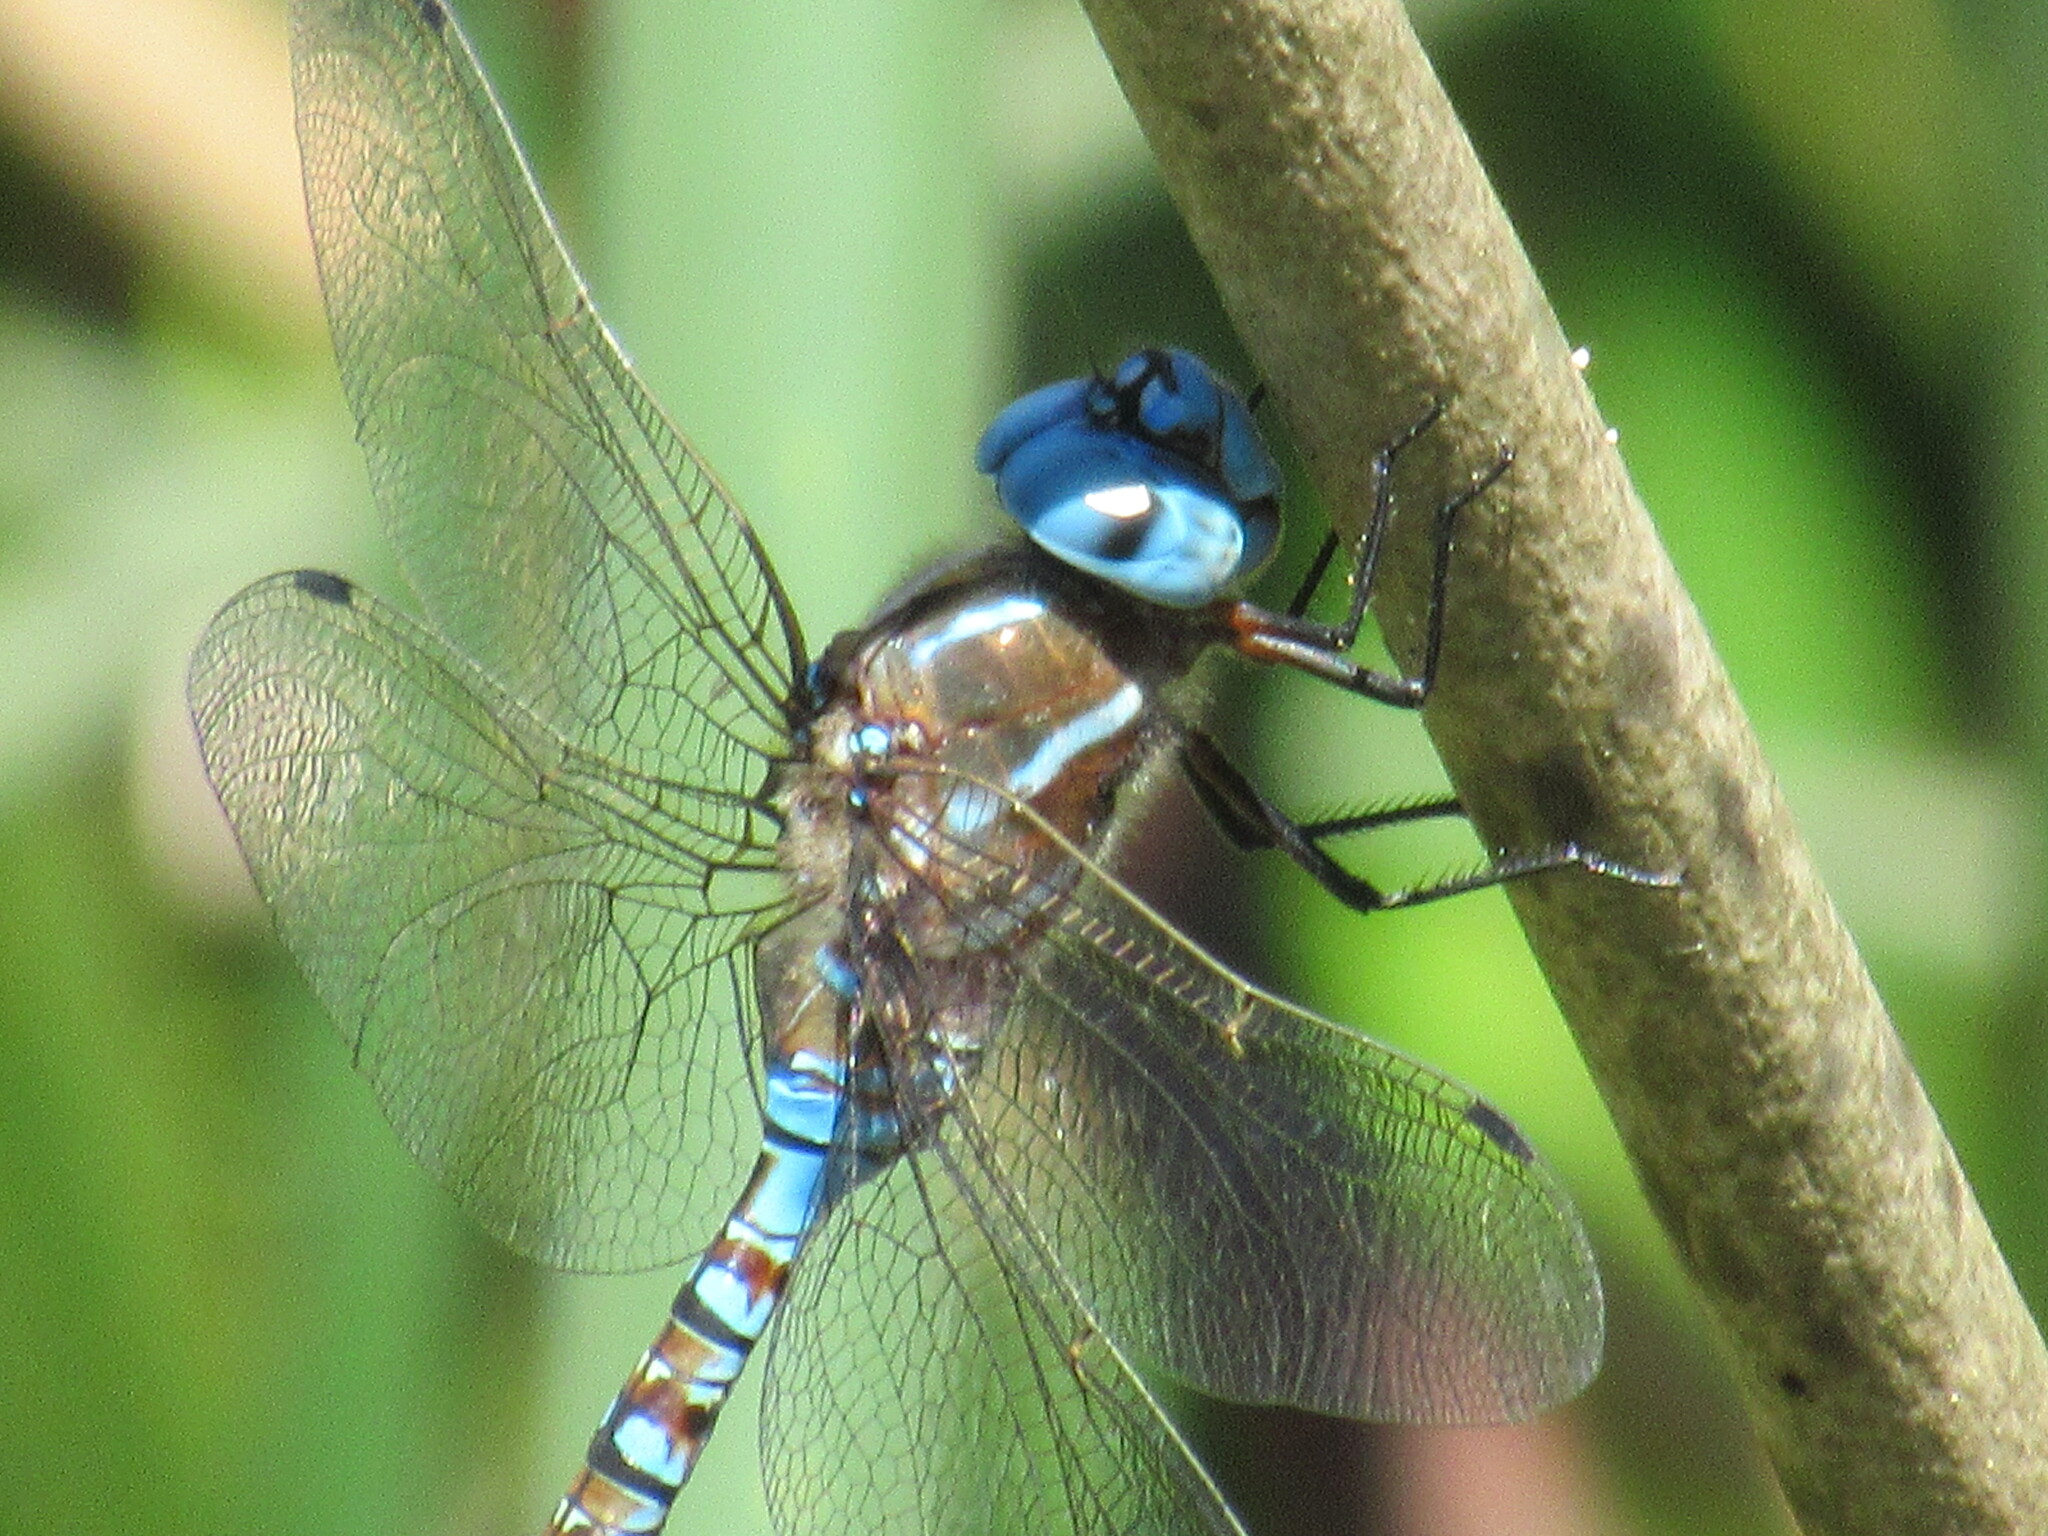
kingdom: Animalia
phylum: Arthropoda
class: Insecta
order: Odonata
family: Aeshnidae
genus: Rhionaeschna
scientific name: Rhionaeschna multicolor
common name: Blue-eyed darner
